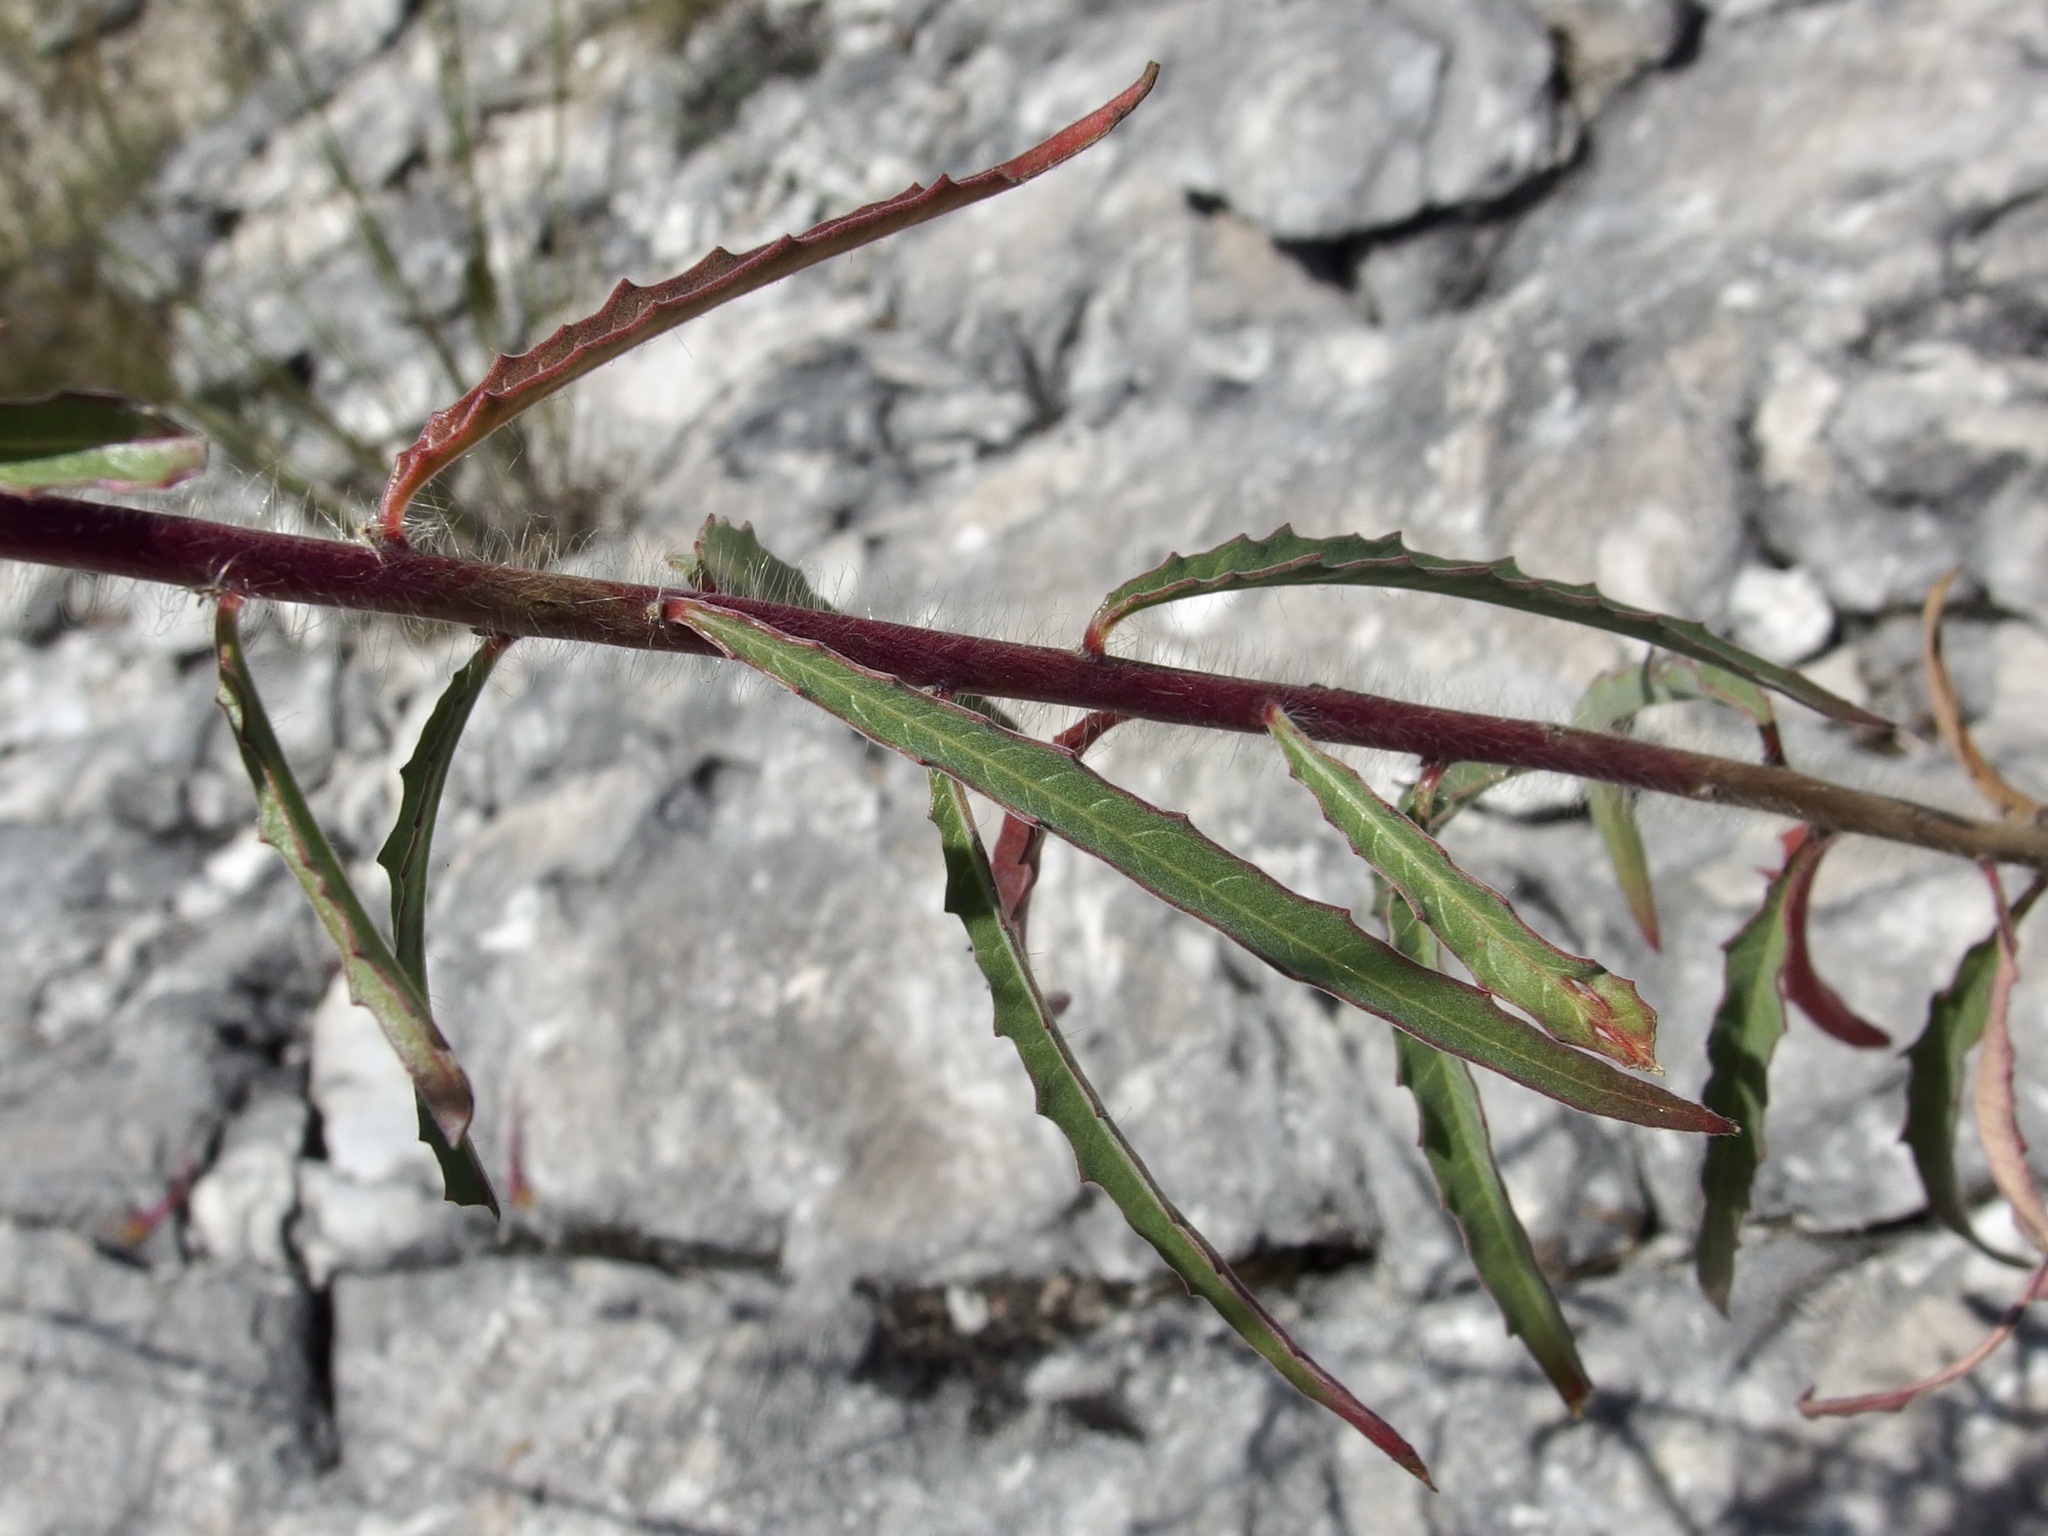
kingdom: Plantae
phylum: Tracheophyta
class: Magnoliopsida
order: Myrtales
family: Onagraceae
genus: Oenothera
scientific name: Oenothera anomala
